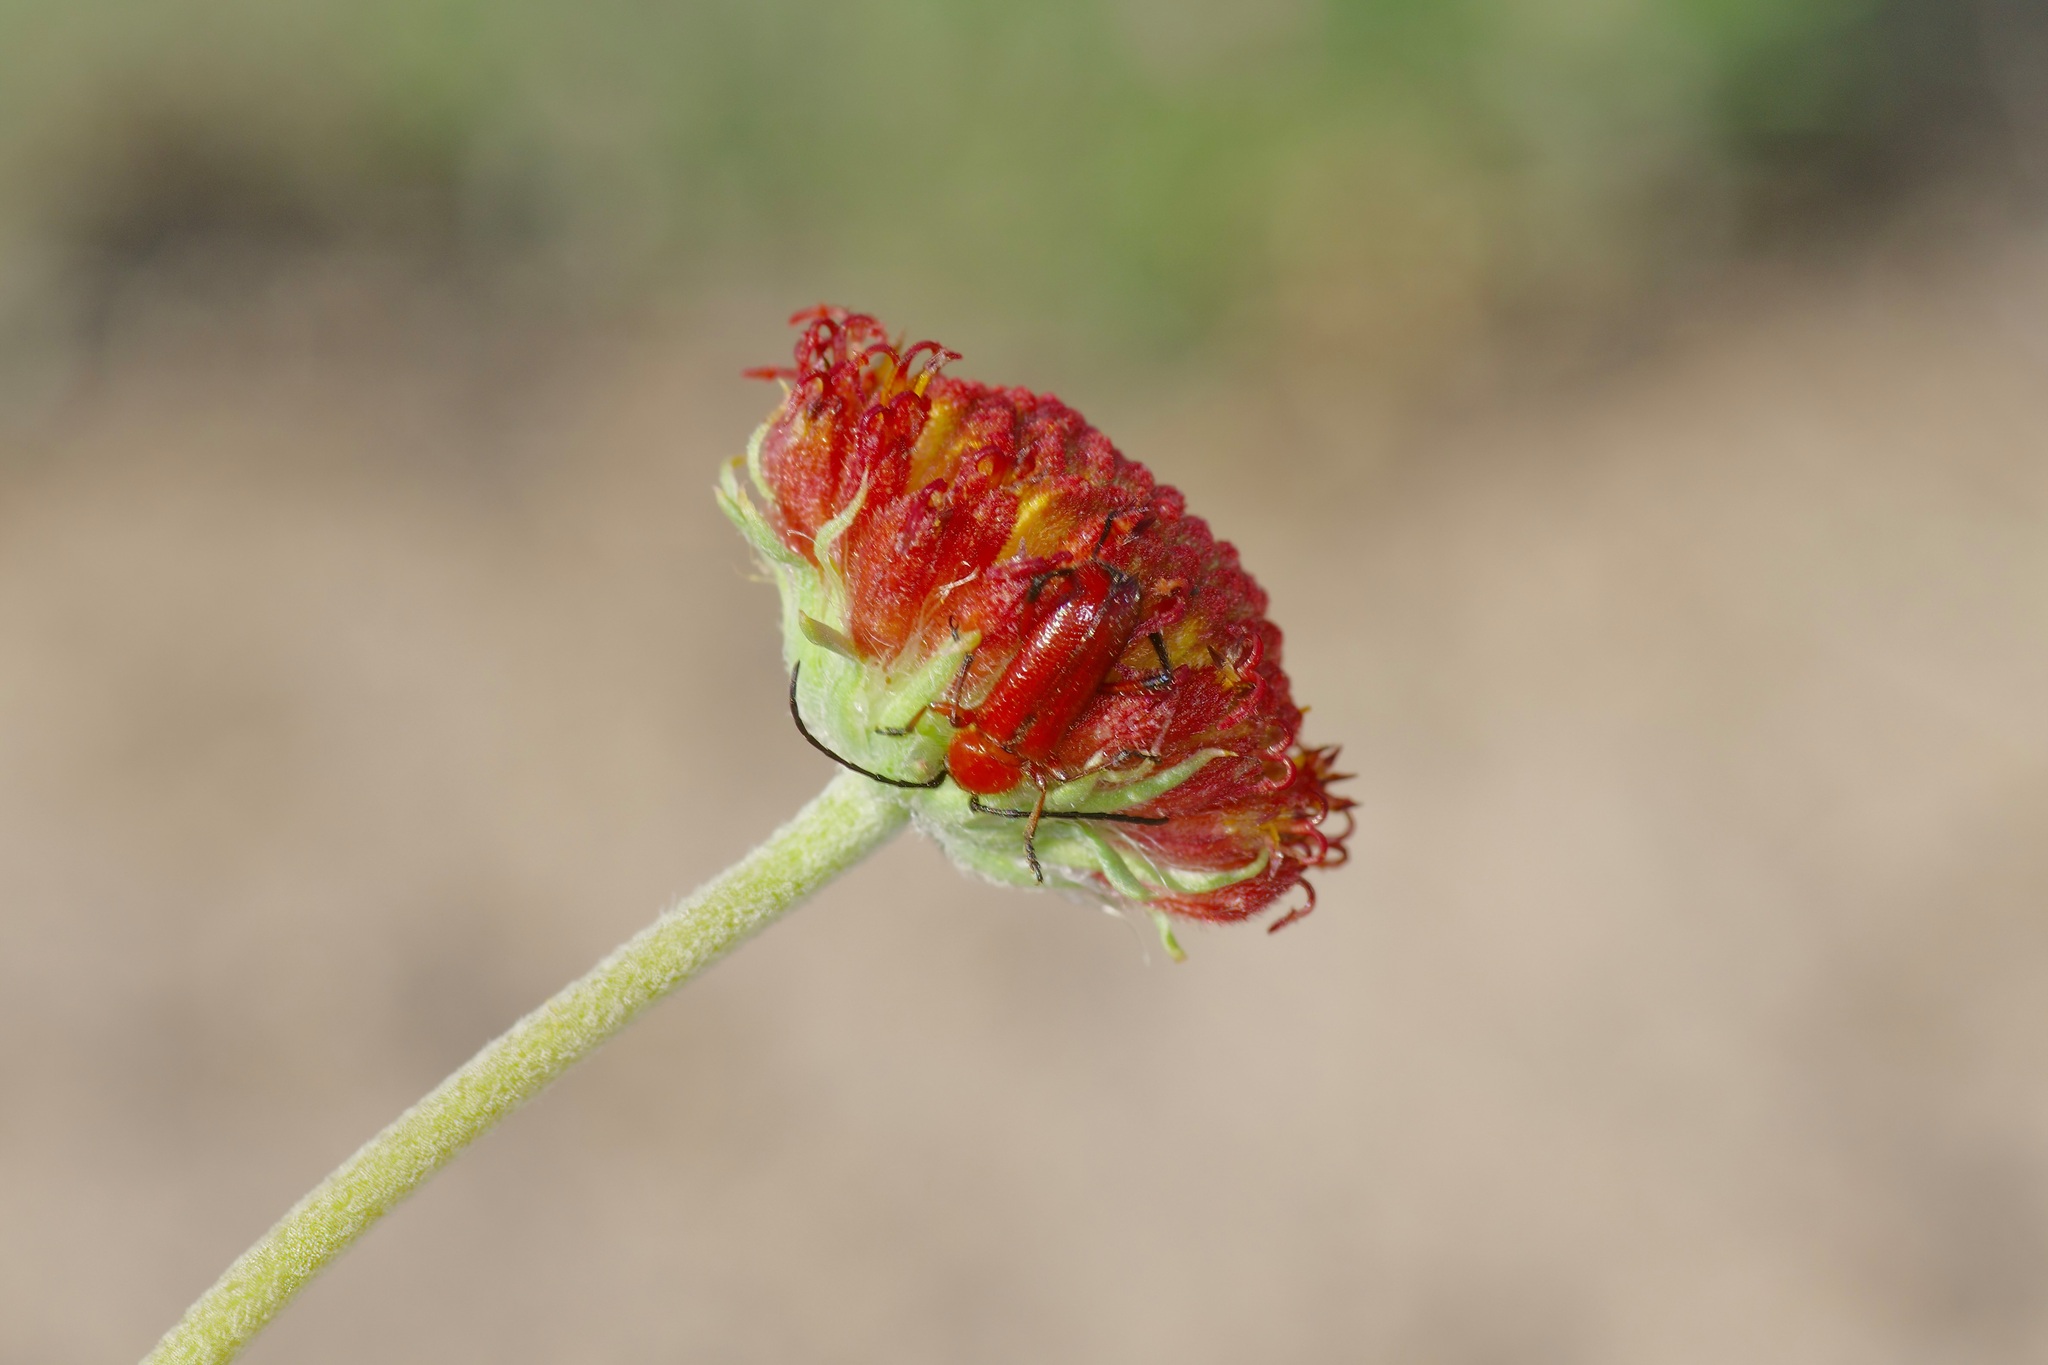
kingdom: Animalia
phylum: Arthropoda
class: Insecta
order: Coleoptera
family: Cerambycidae
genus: Batyle
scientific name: Batyle suturalis
